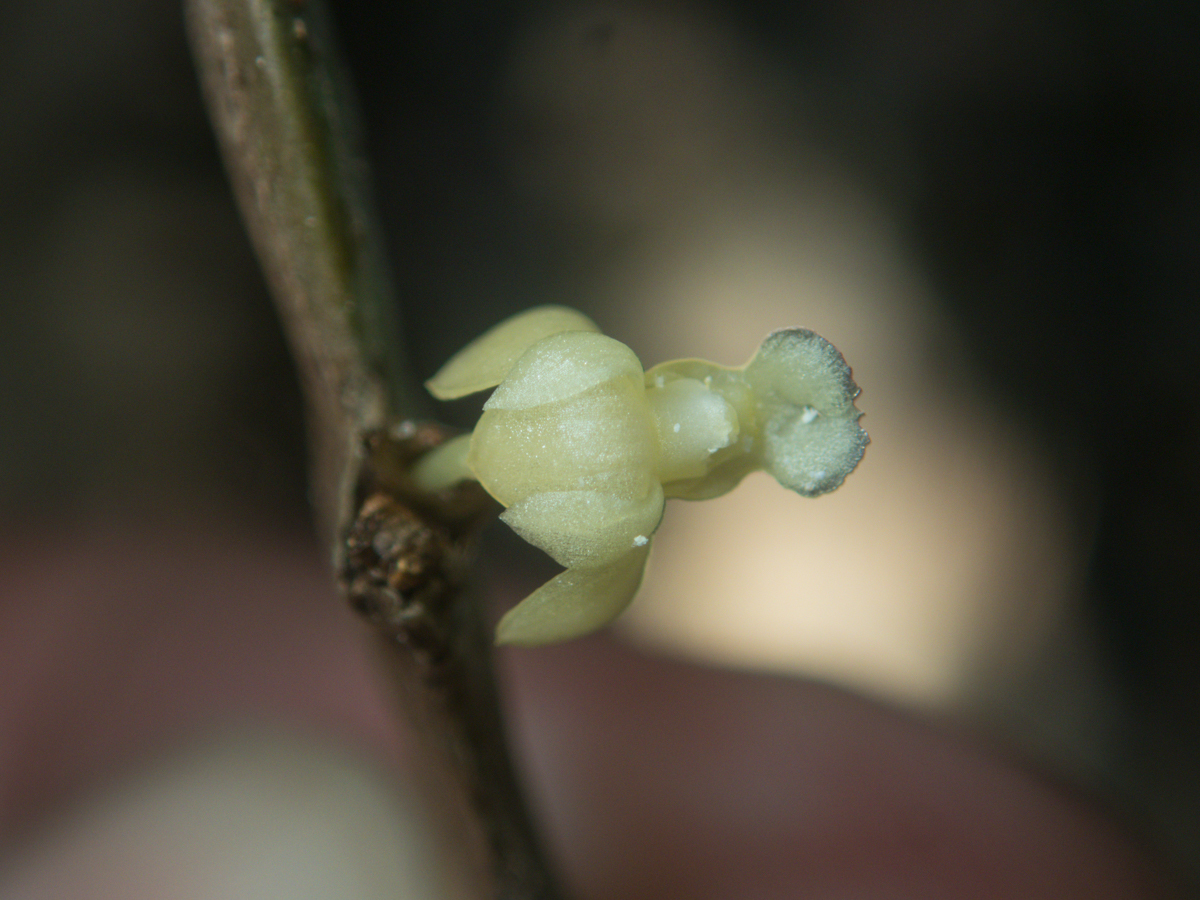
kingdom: Plantae
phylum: Tracheophyta
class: Liliopsida
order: Asparagales
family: Orchidaceae
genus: Dendrobium
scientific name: Dendrobium aloifolium
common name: Aloe-like dendrobium
